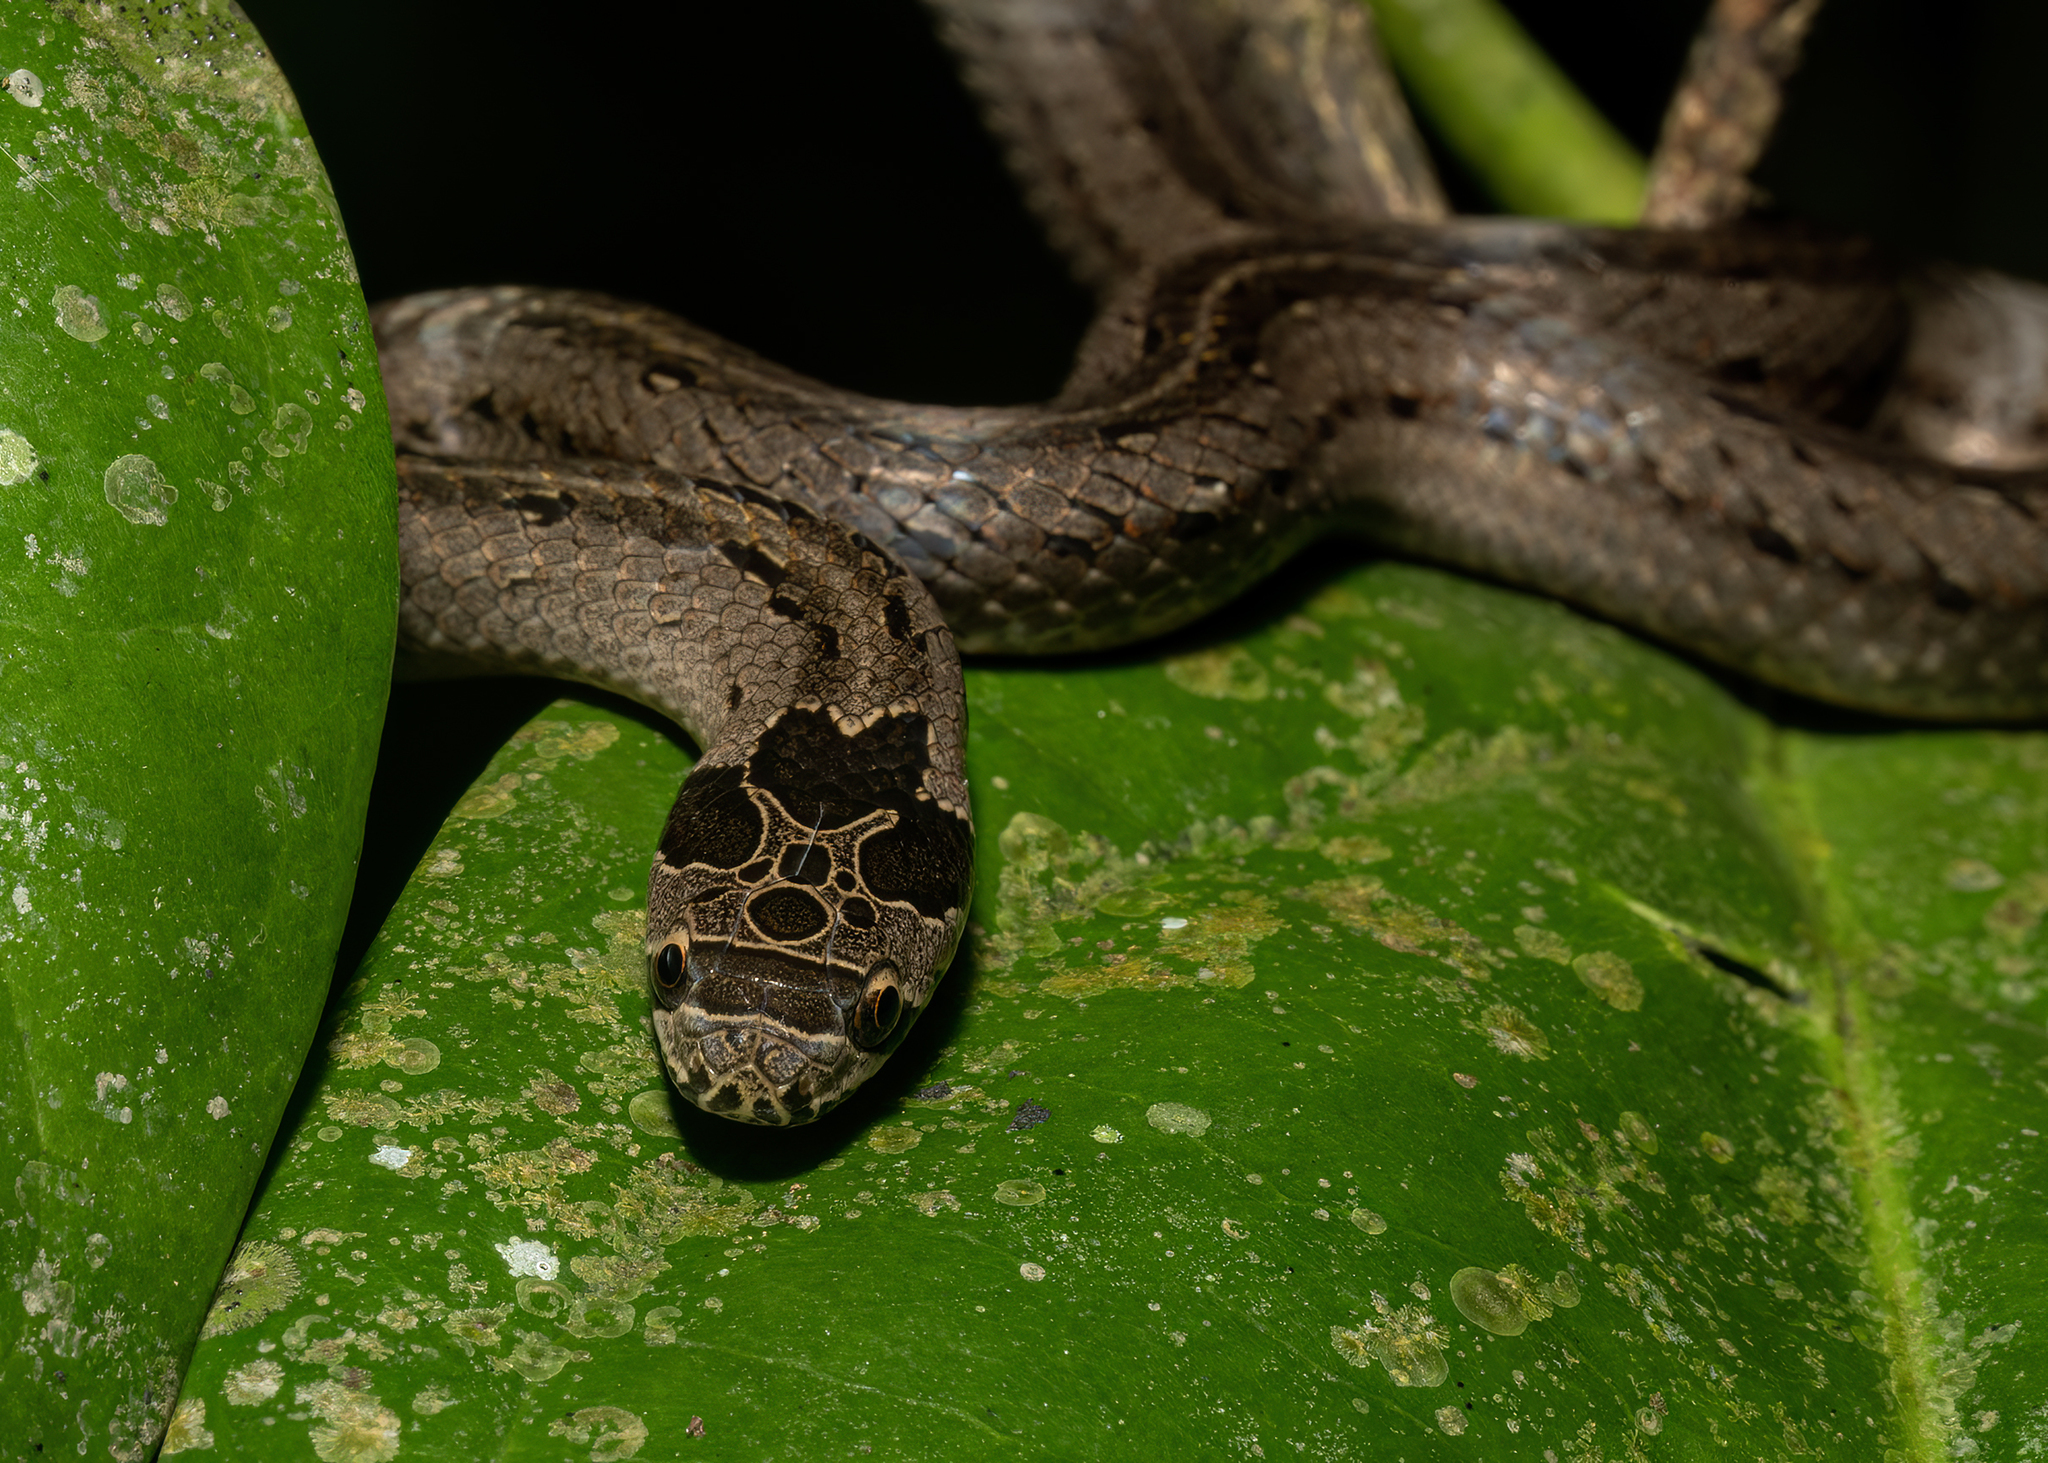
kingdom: Animalia
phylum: Chordata
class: Squamata
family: Colubridae
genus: Oligodon
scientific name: Oligodon deuvei
